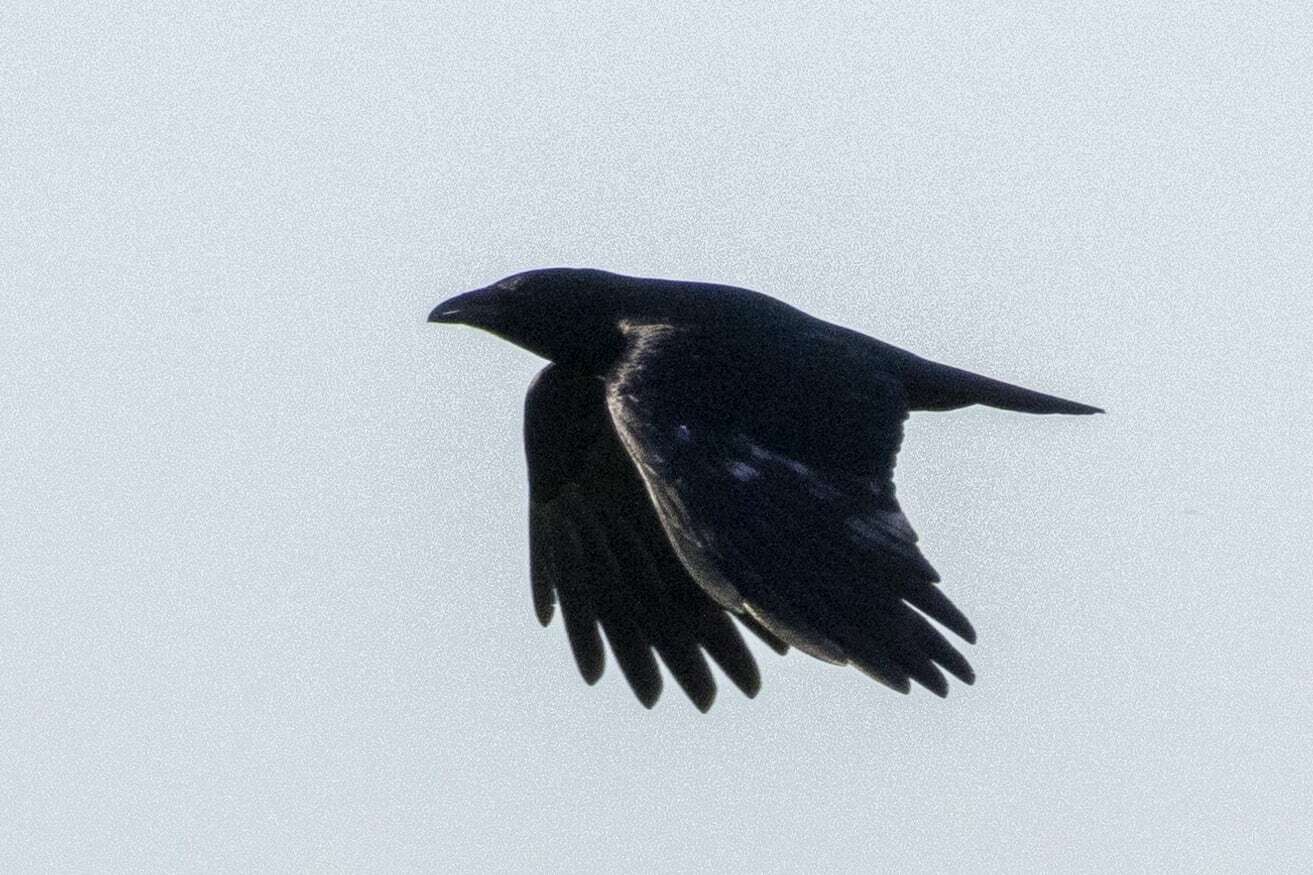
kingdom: Animalia
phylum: Chordata
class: Aves
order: Passeriformes
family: Corvidae
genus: Corvus
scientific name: Corvus corone
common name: Carrion crow
